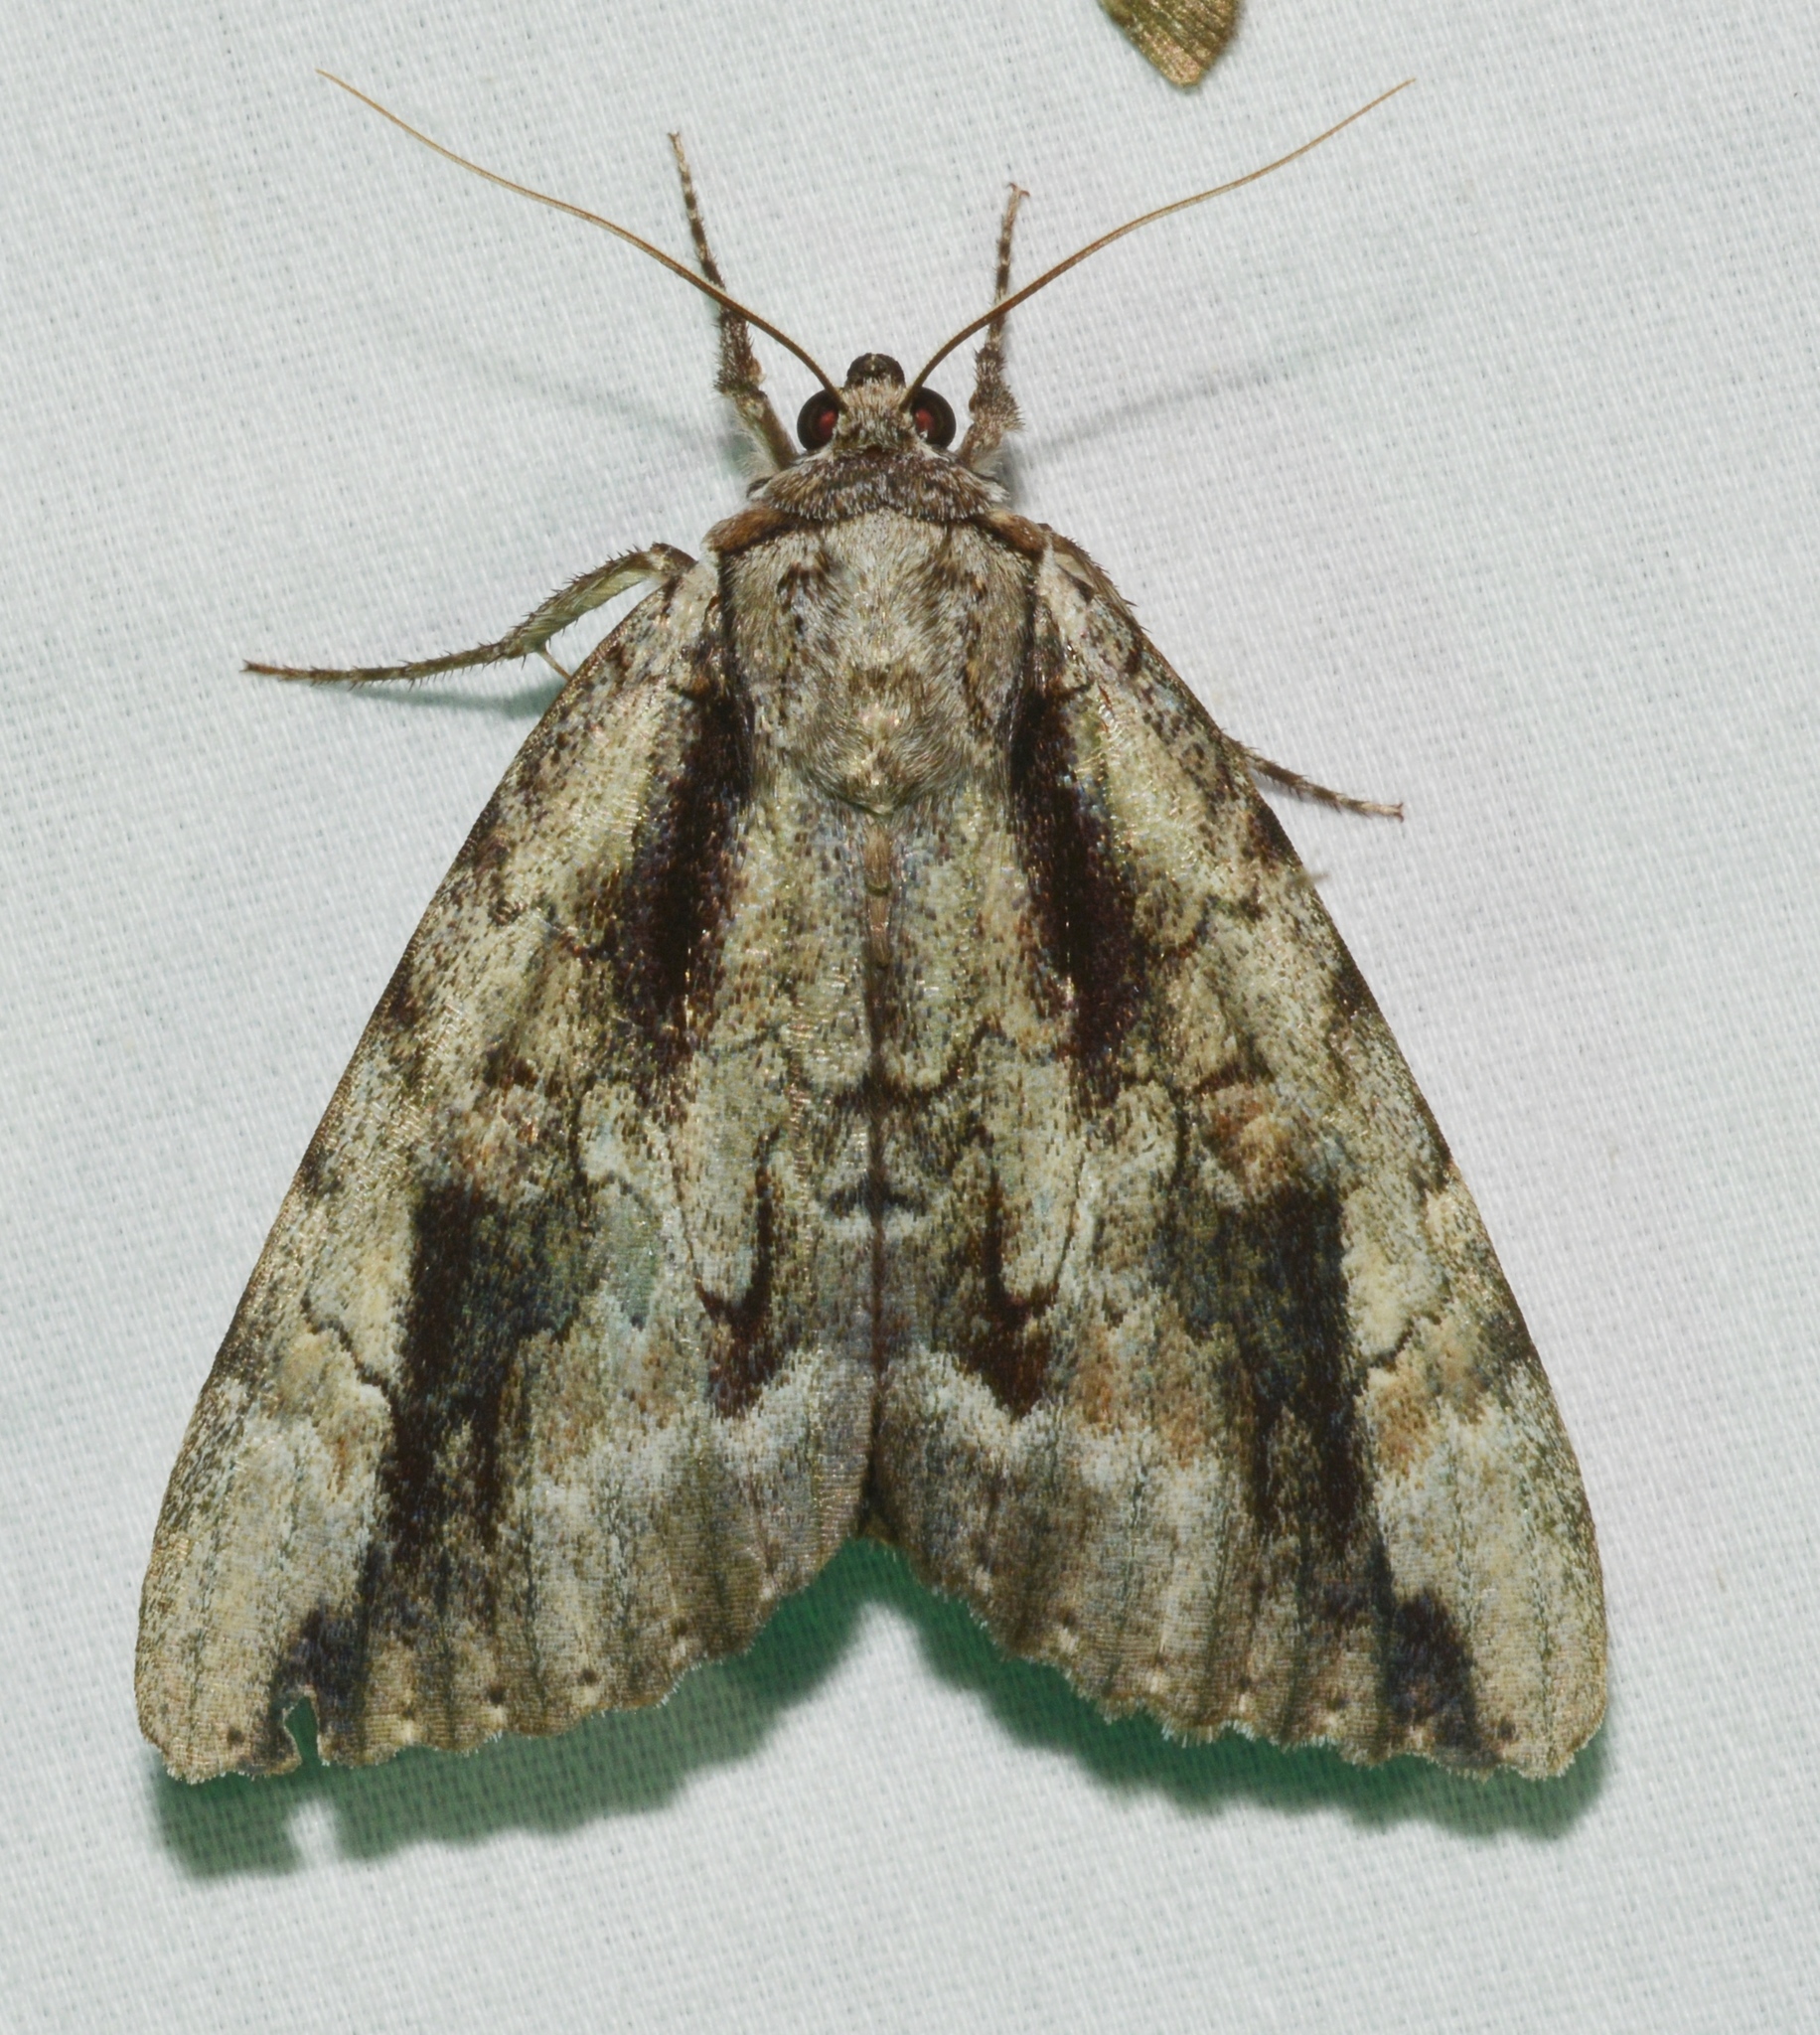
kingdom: Animalia
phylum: Arthropoda
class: Insecta
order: Lepidoptera
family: Erebidae
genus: Catocala
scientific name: Catocala angusi
